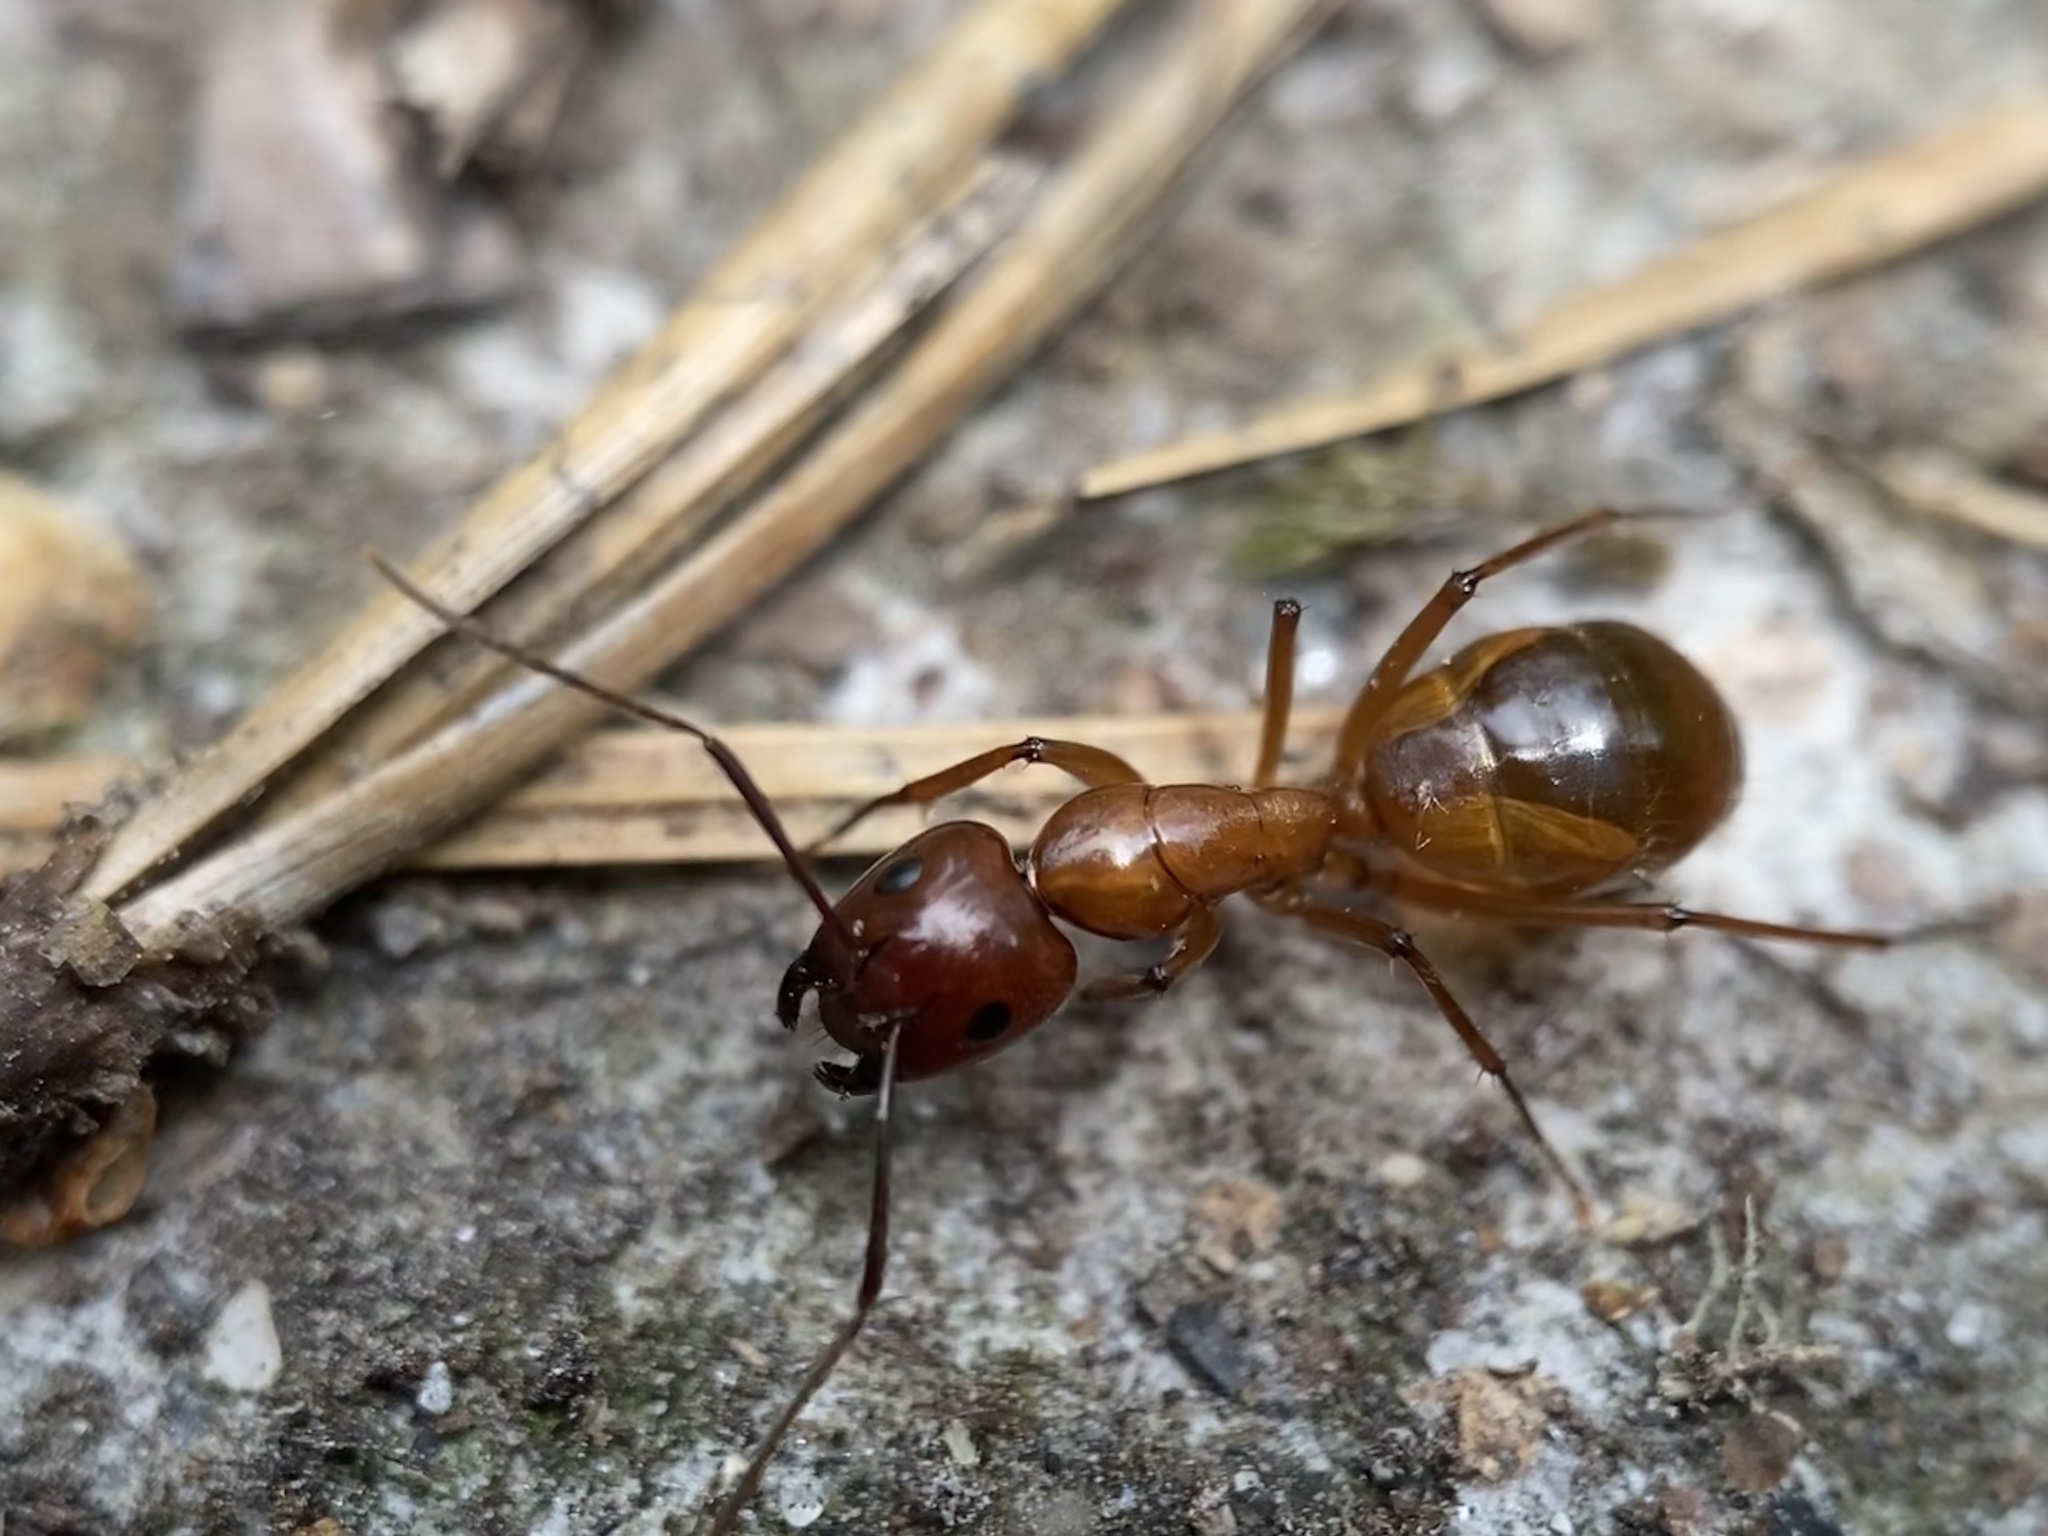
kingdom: Animalia
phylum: Arthropoda
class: Insecta
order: Hymenoptera
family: Formicidae
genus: Camponotus
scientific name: Camponotus castaneus
